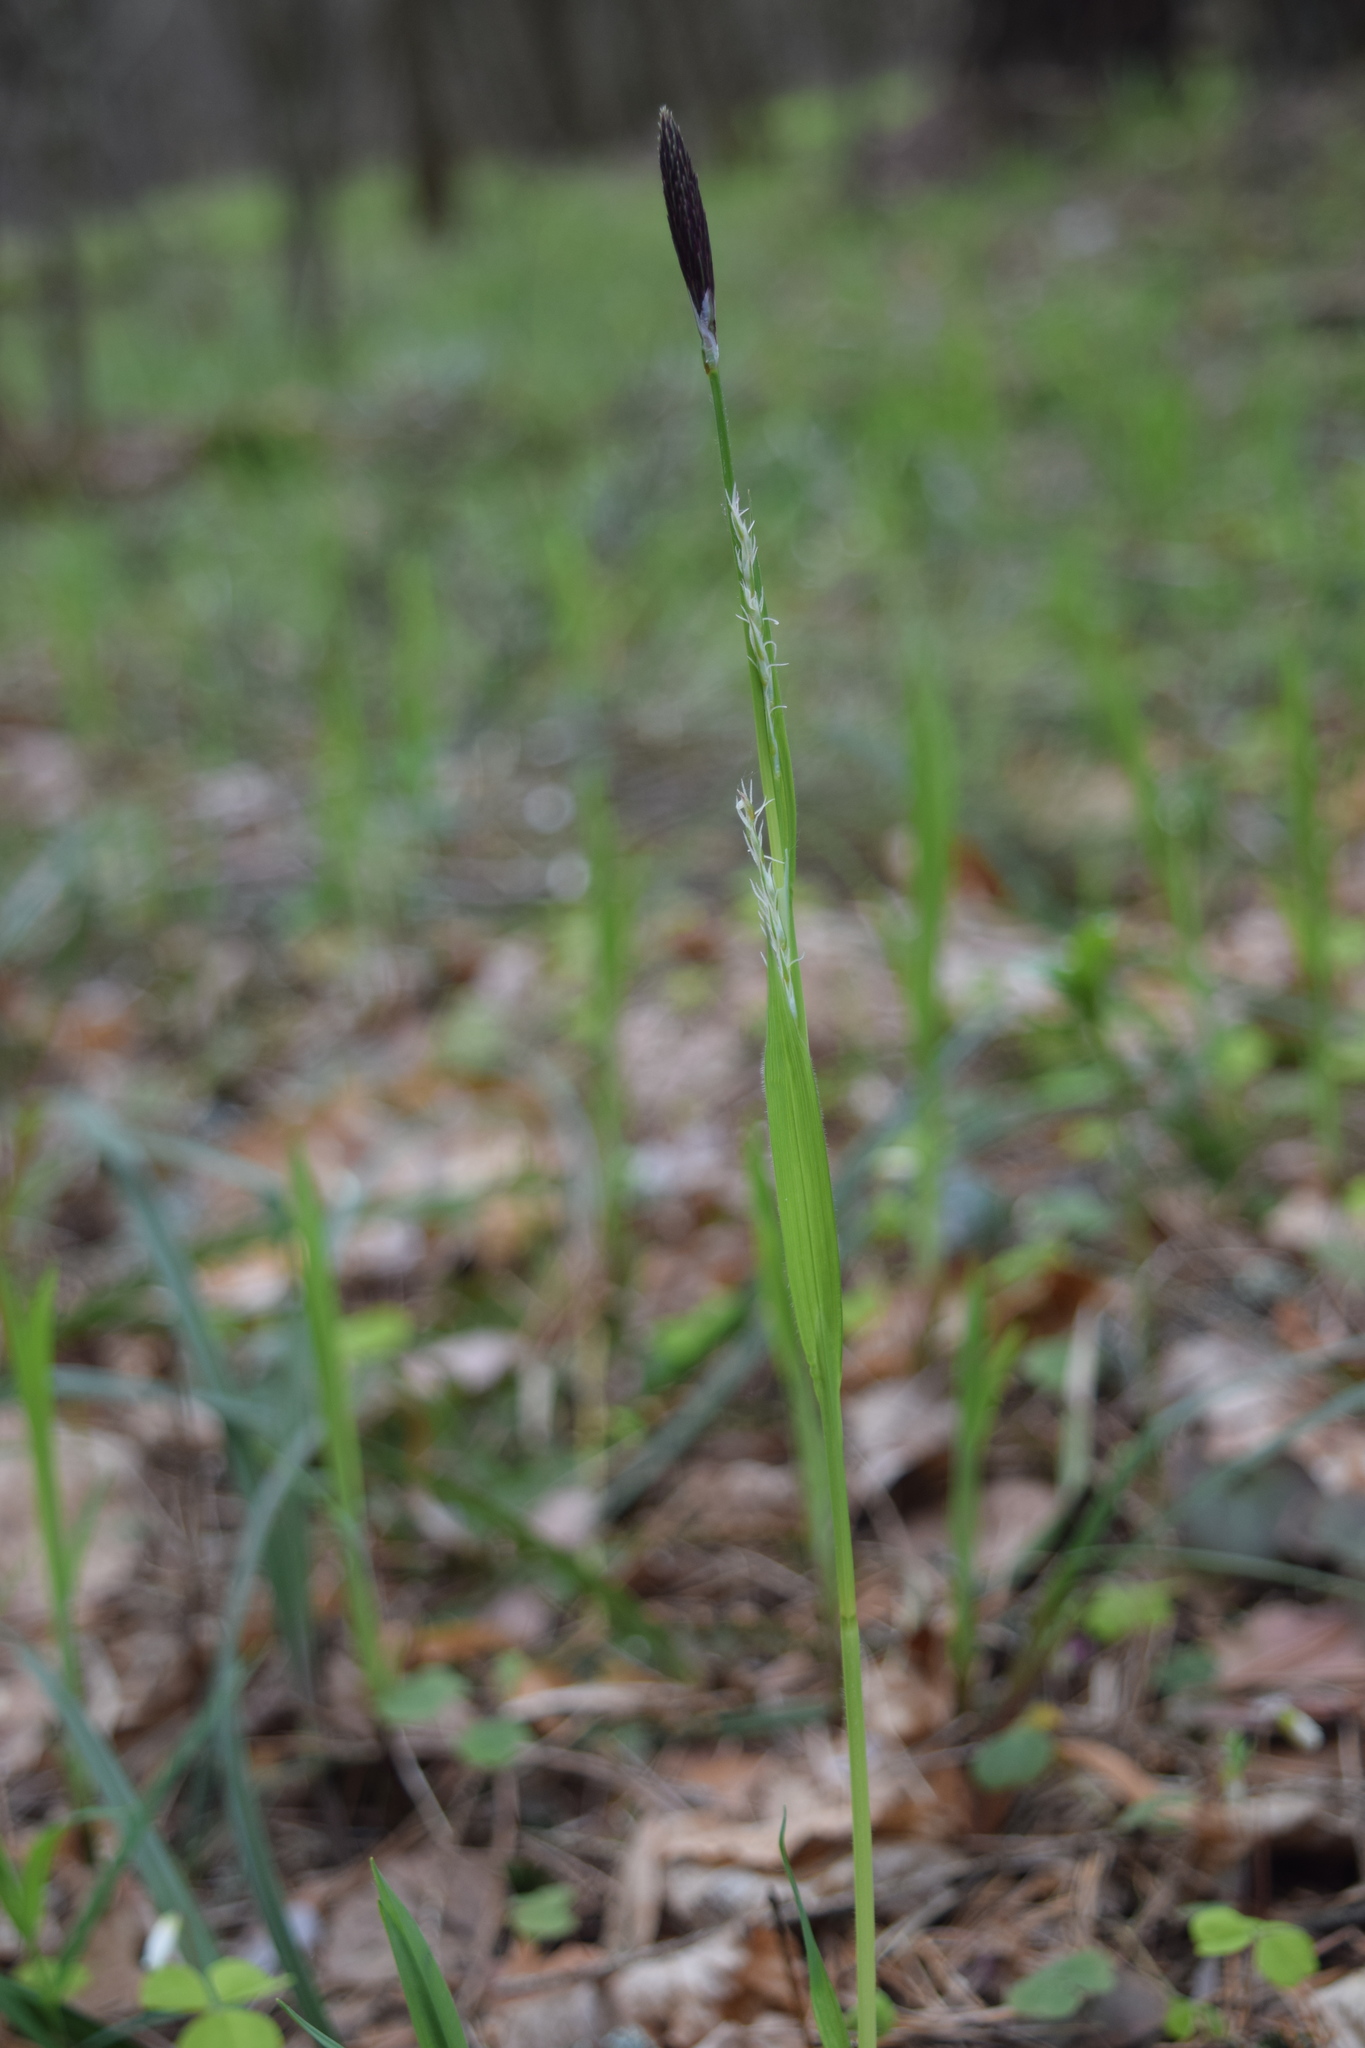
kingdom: Plantae
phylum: Tracheophyta
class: Liliopsida
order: Poales
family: Cyperaceae
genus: Carex
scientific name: Carex pilosa
